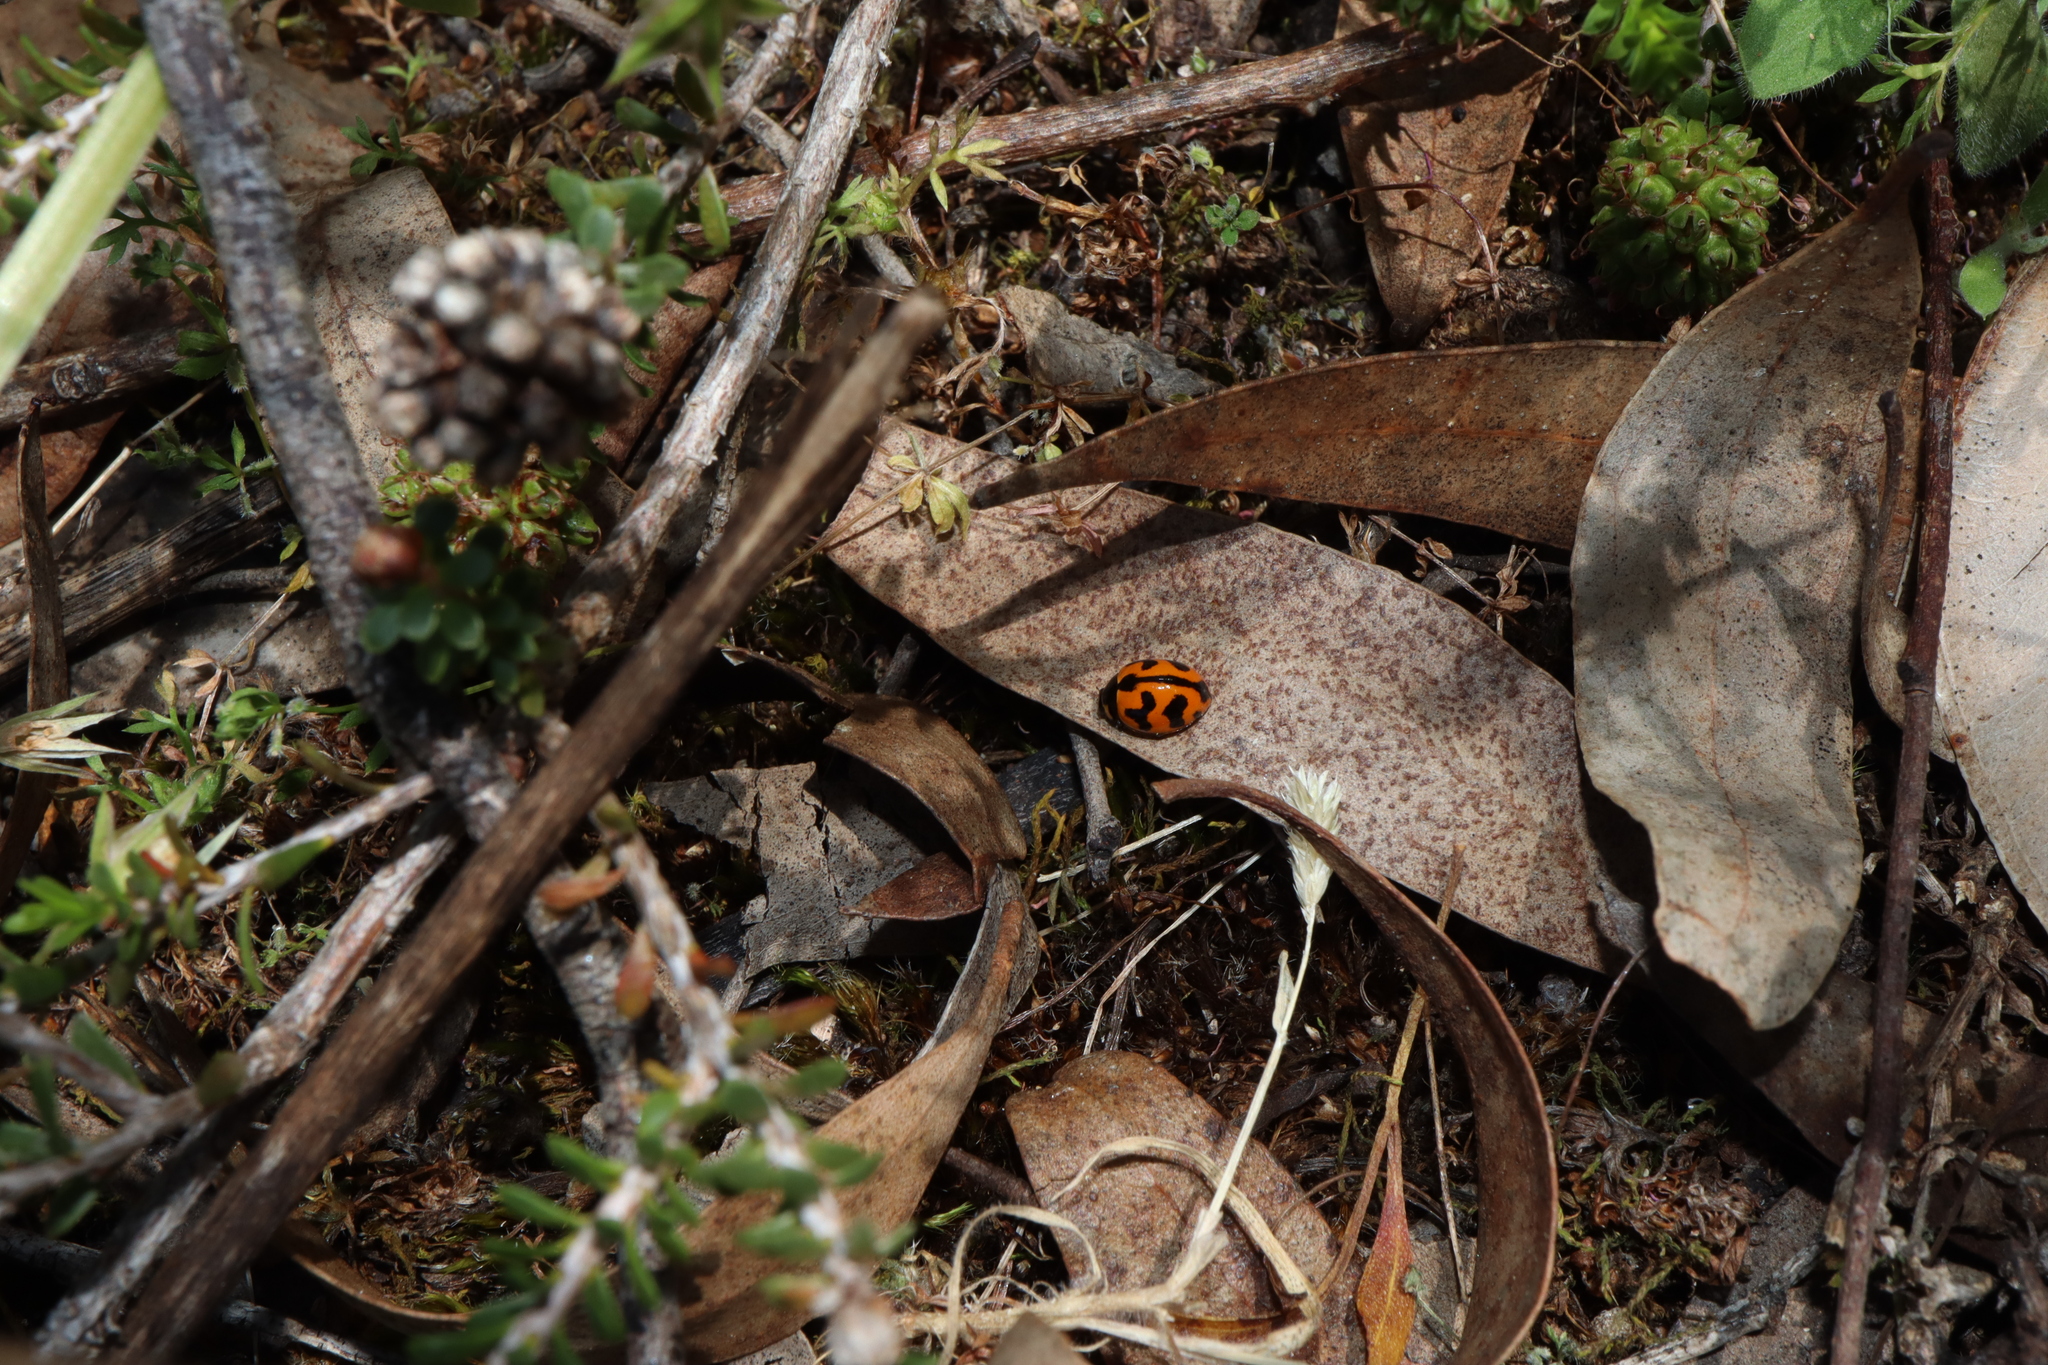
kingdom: Animalia
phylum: Arthropoda
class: Insecta
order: Coleoptera
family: Coccinellidae
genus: Coccinella
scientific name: Coccinella transversalis
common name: Transverse lady beetle
